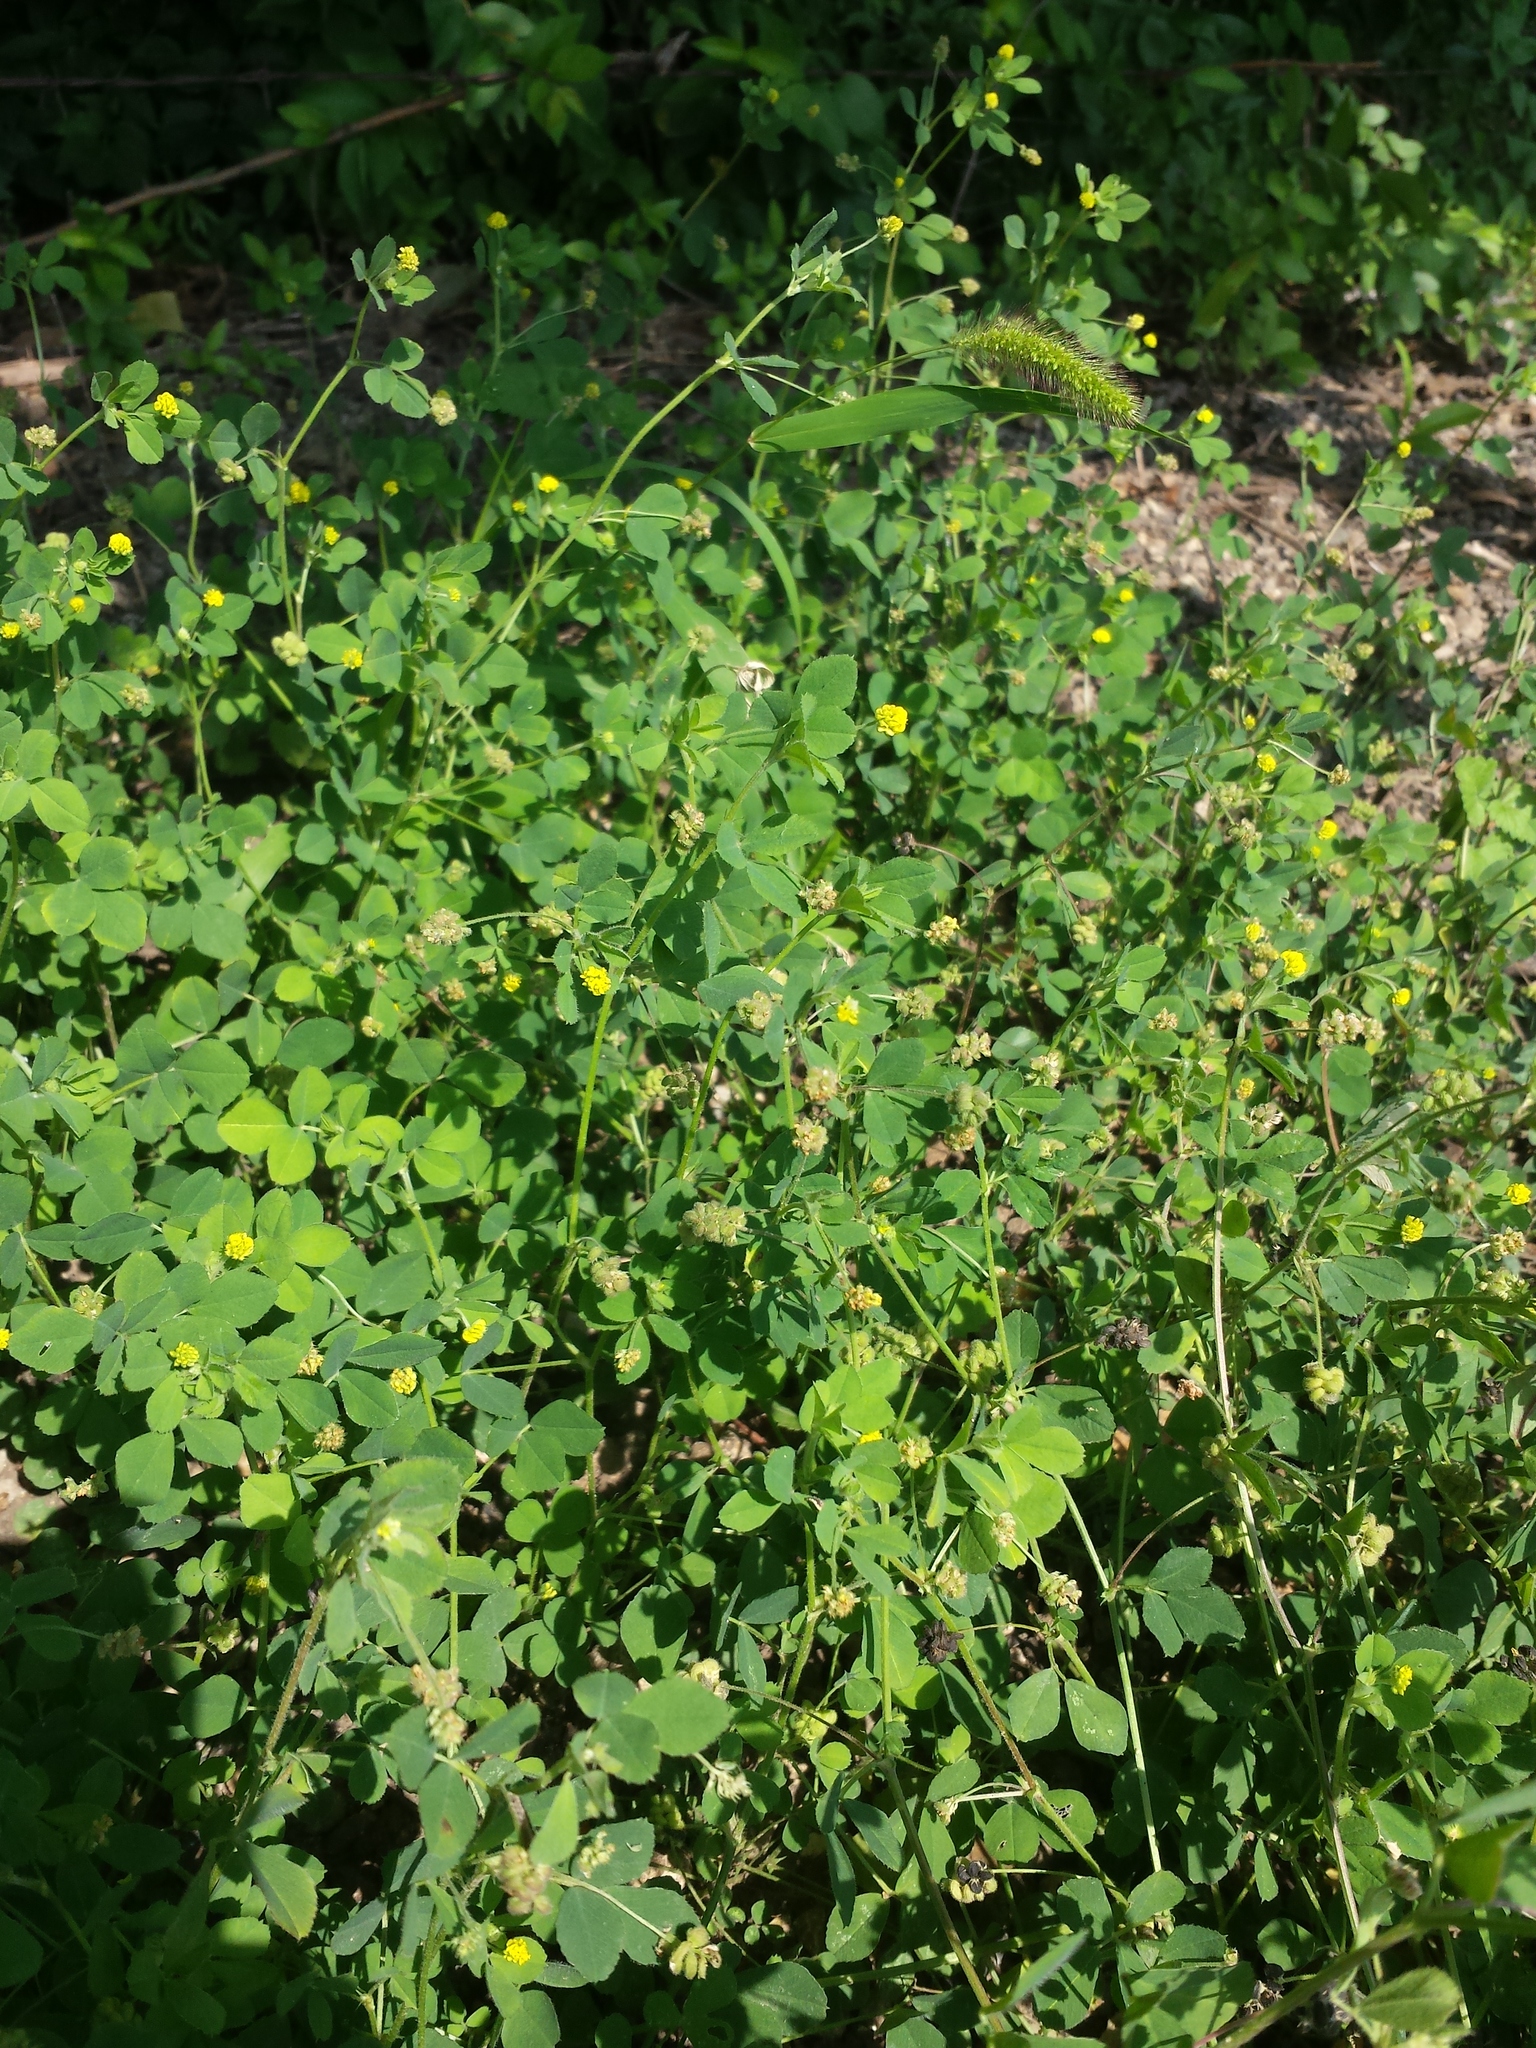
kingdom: Plantae
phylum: Tracheophyta
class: Magnoliopsida
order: Fabales
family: Fabaceae
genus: Medicago
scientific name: Medicago lupulina
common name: Black medick
